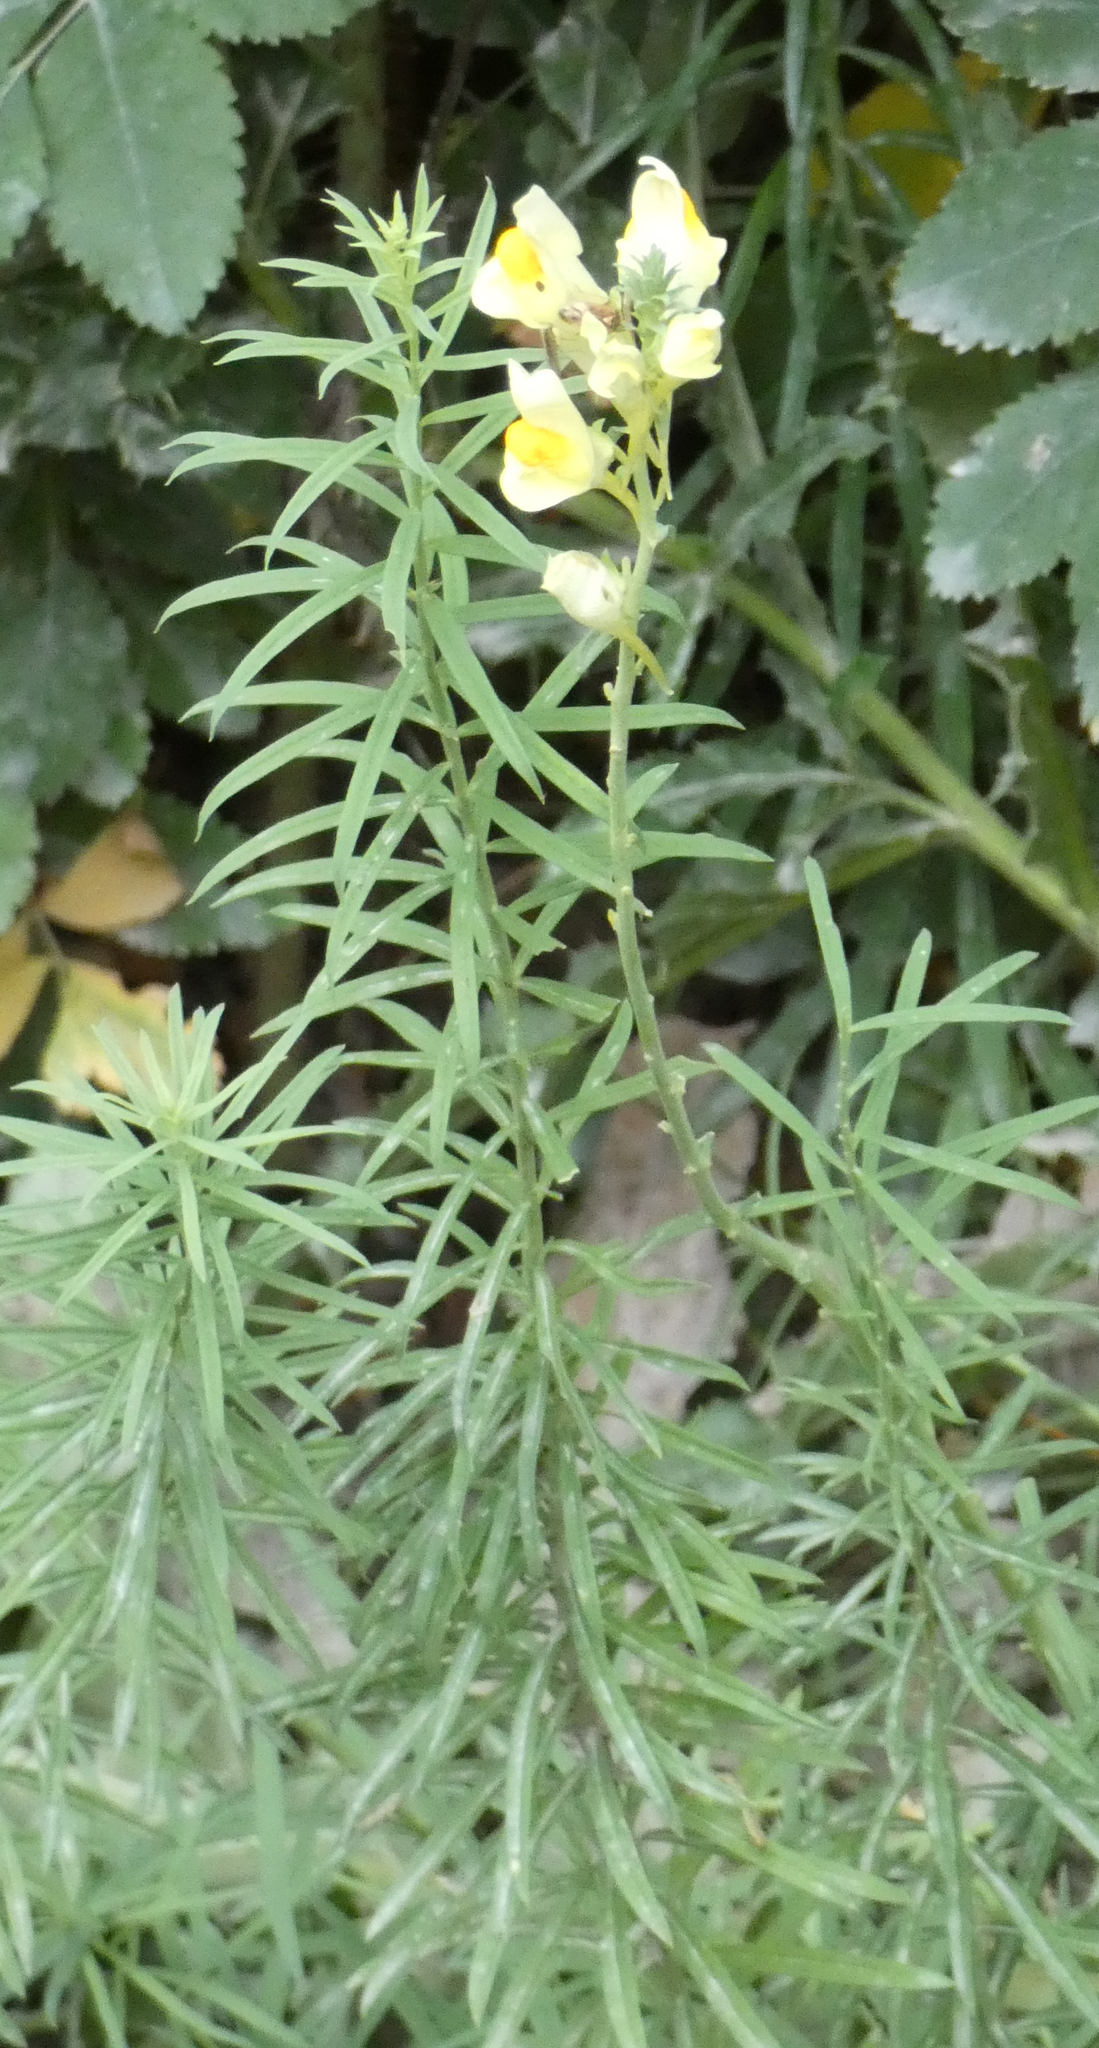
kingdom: Plantae
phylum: Tracheophyta
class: Magnoliopsida
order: Lamiales
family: Plantaginaceae
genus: Linaria
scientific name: Linaria vulgaris
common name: Butter and eggs
